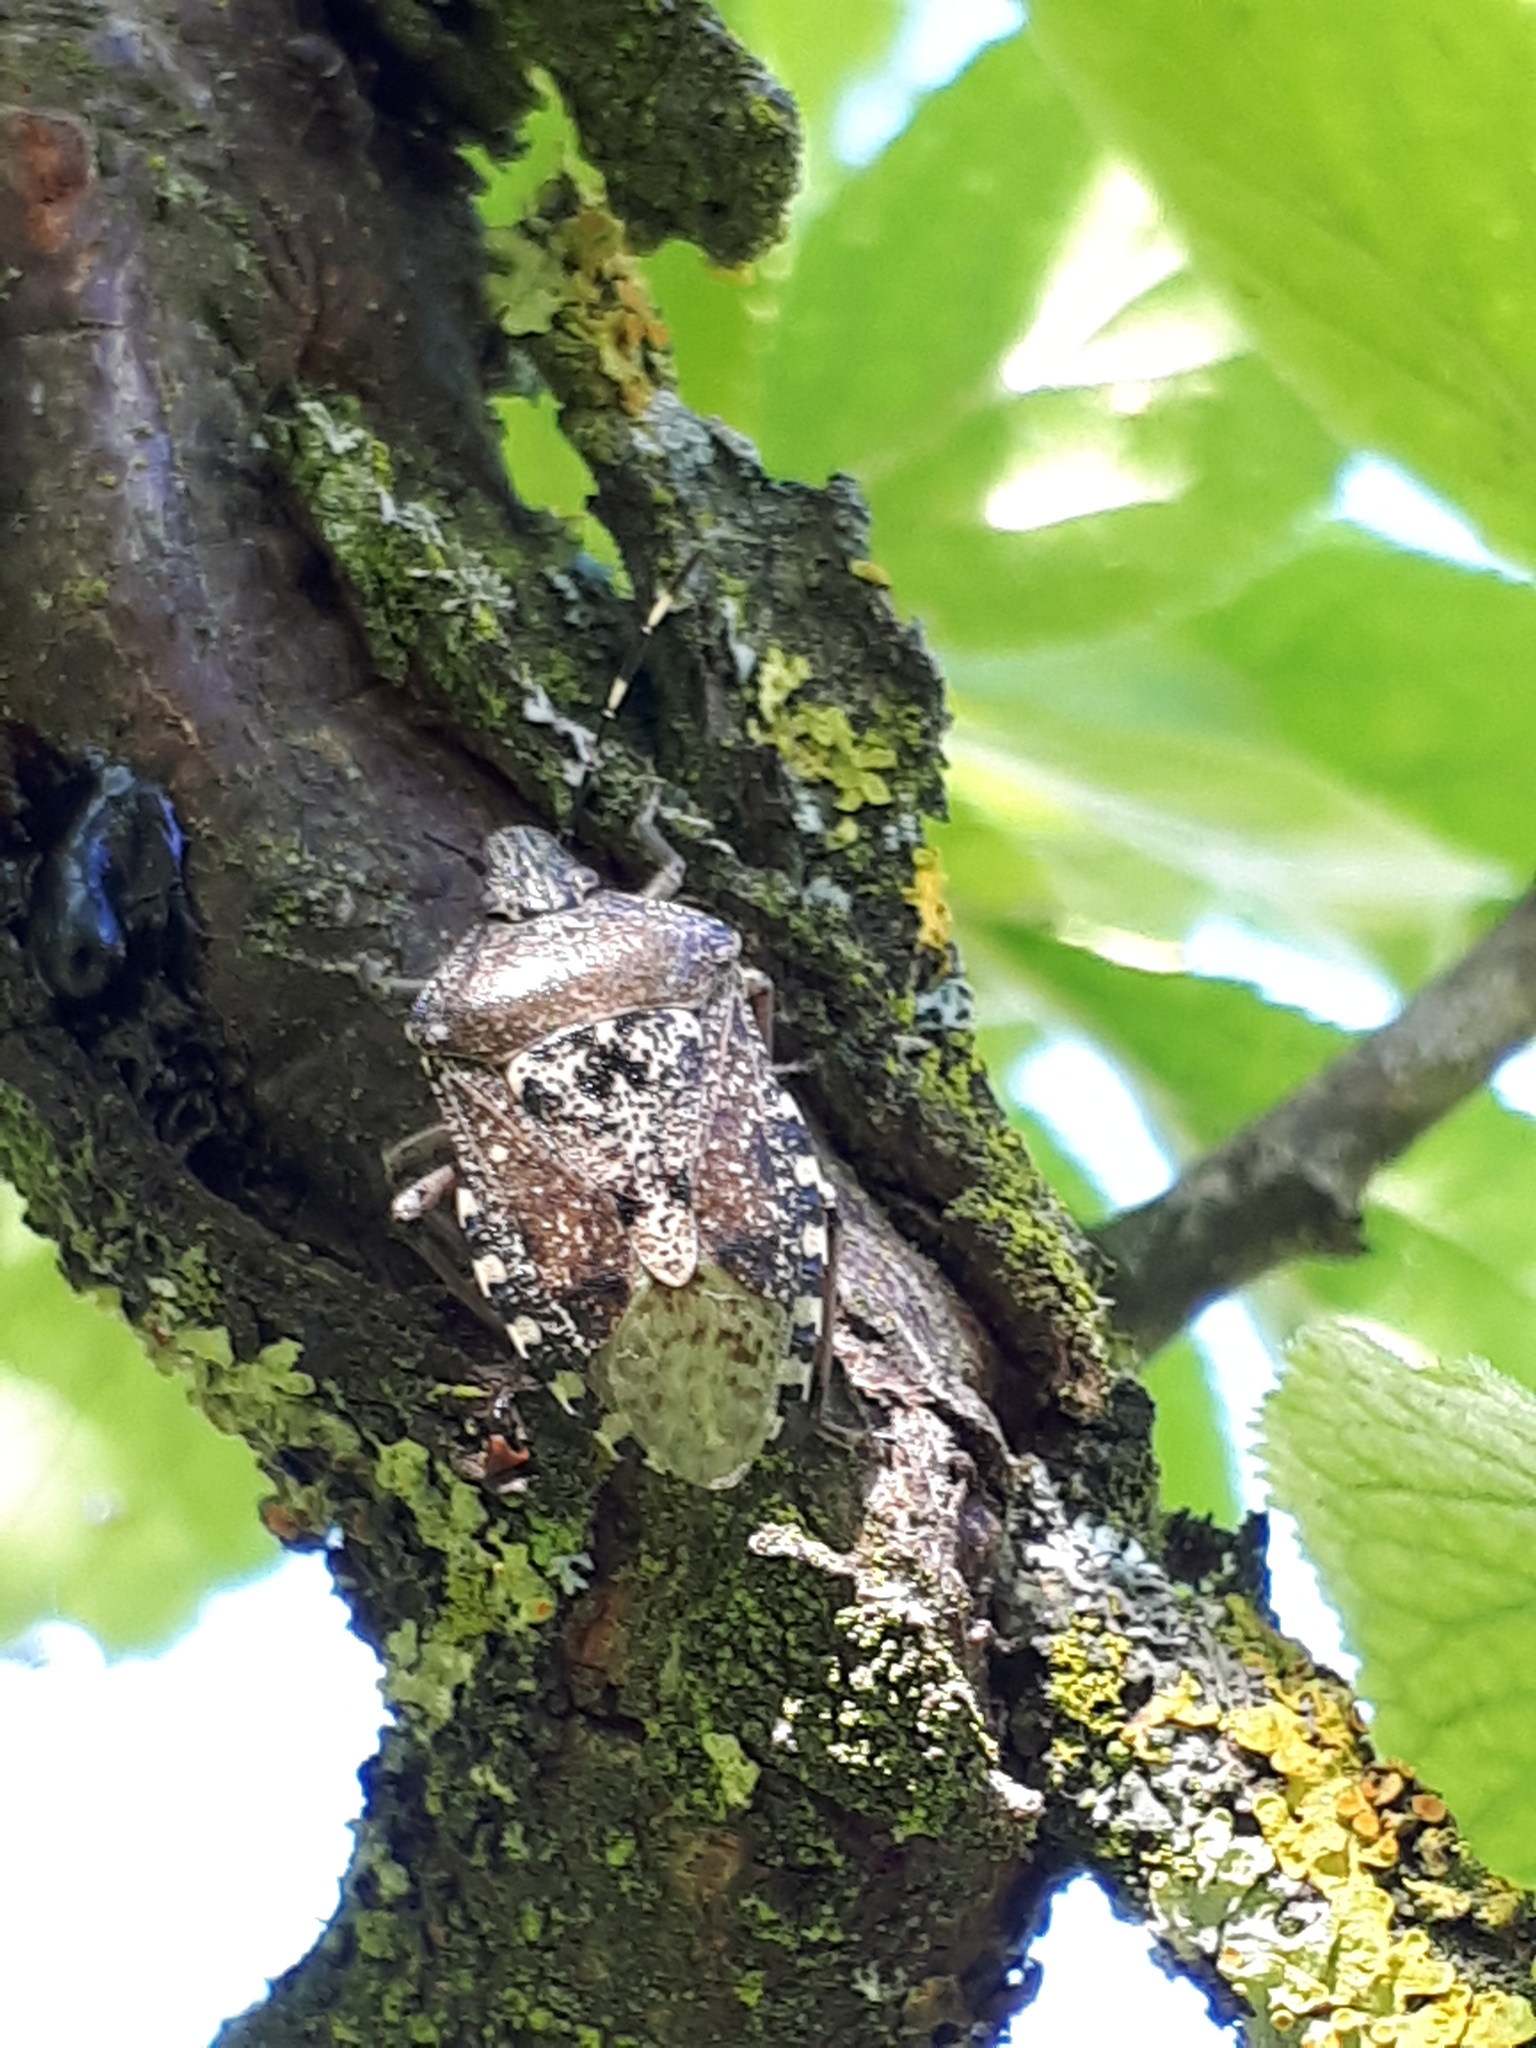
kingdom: Animalia
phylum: Arthropoda
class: Insecta
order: Hemiptera
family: Pentatomidae
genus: Rhaphigaster
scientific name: Rhaphigaster nebulosa
